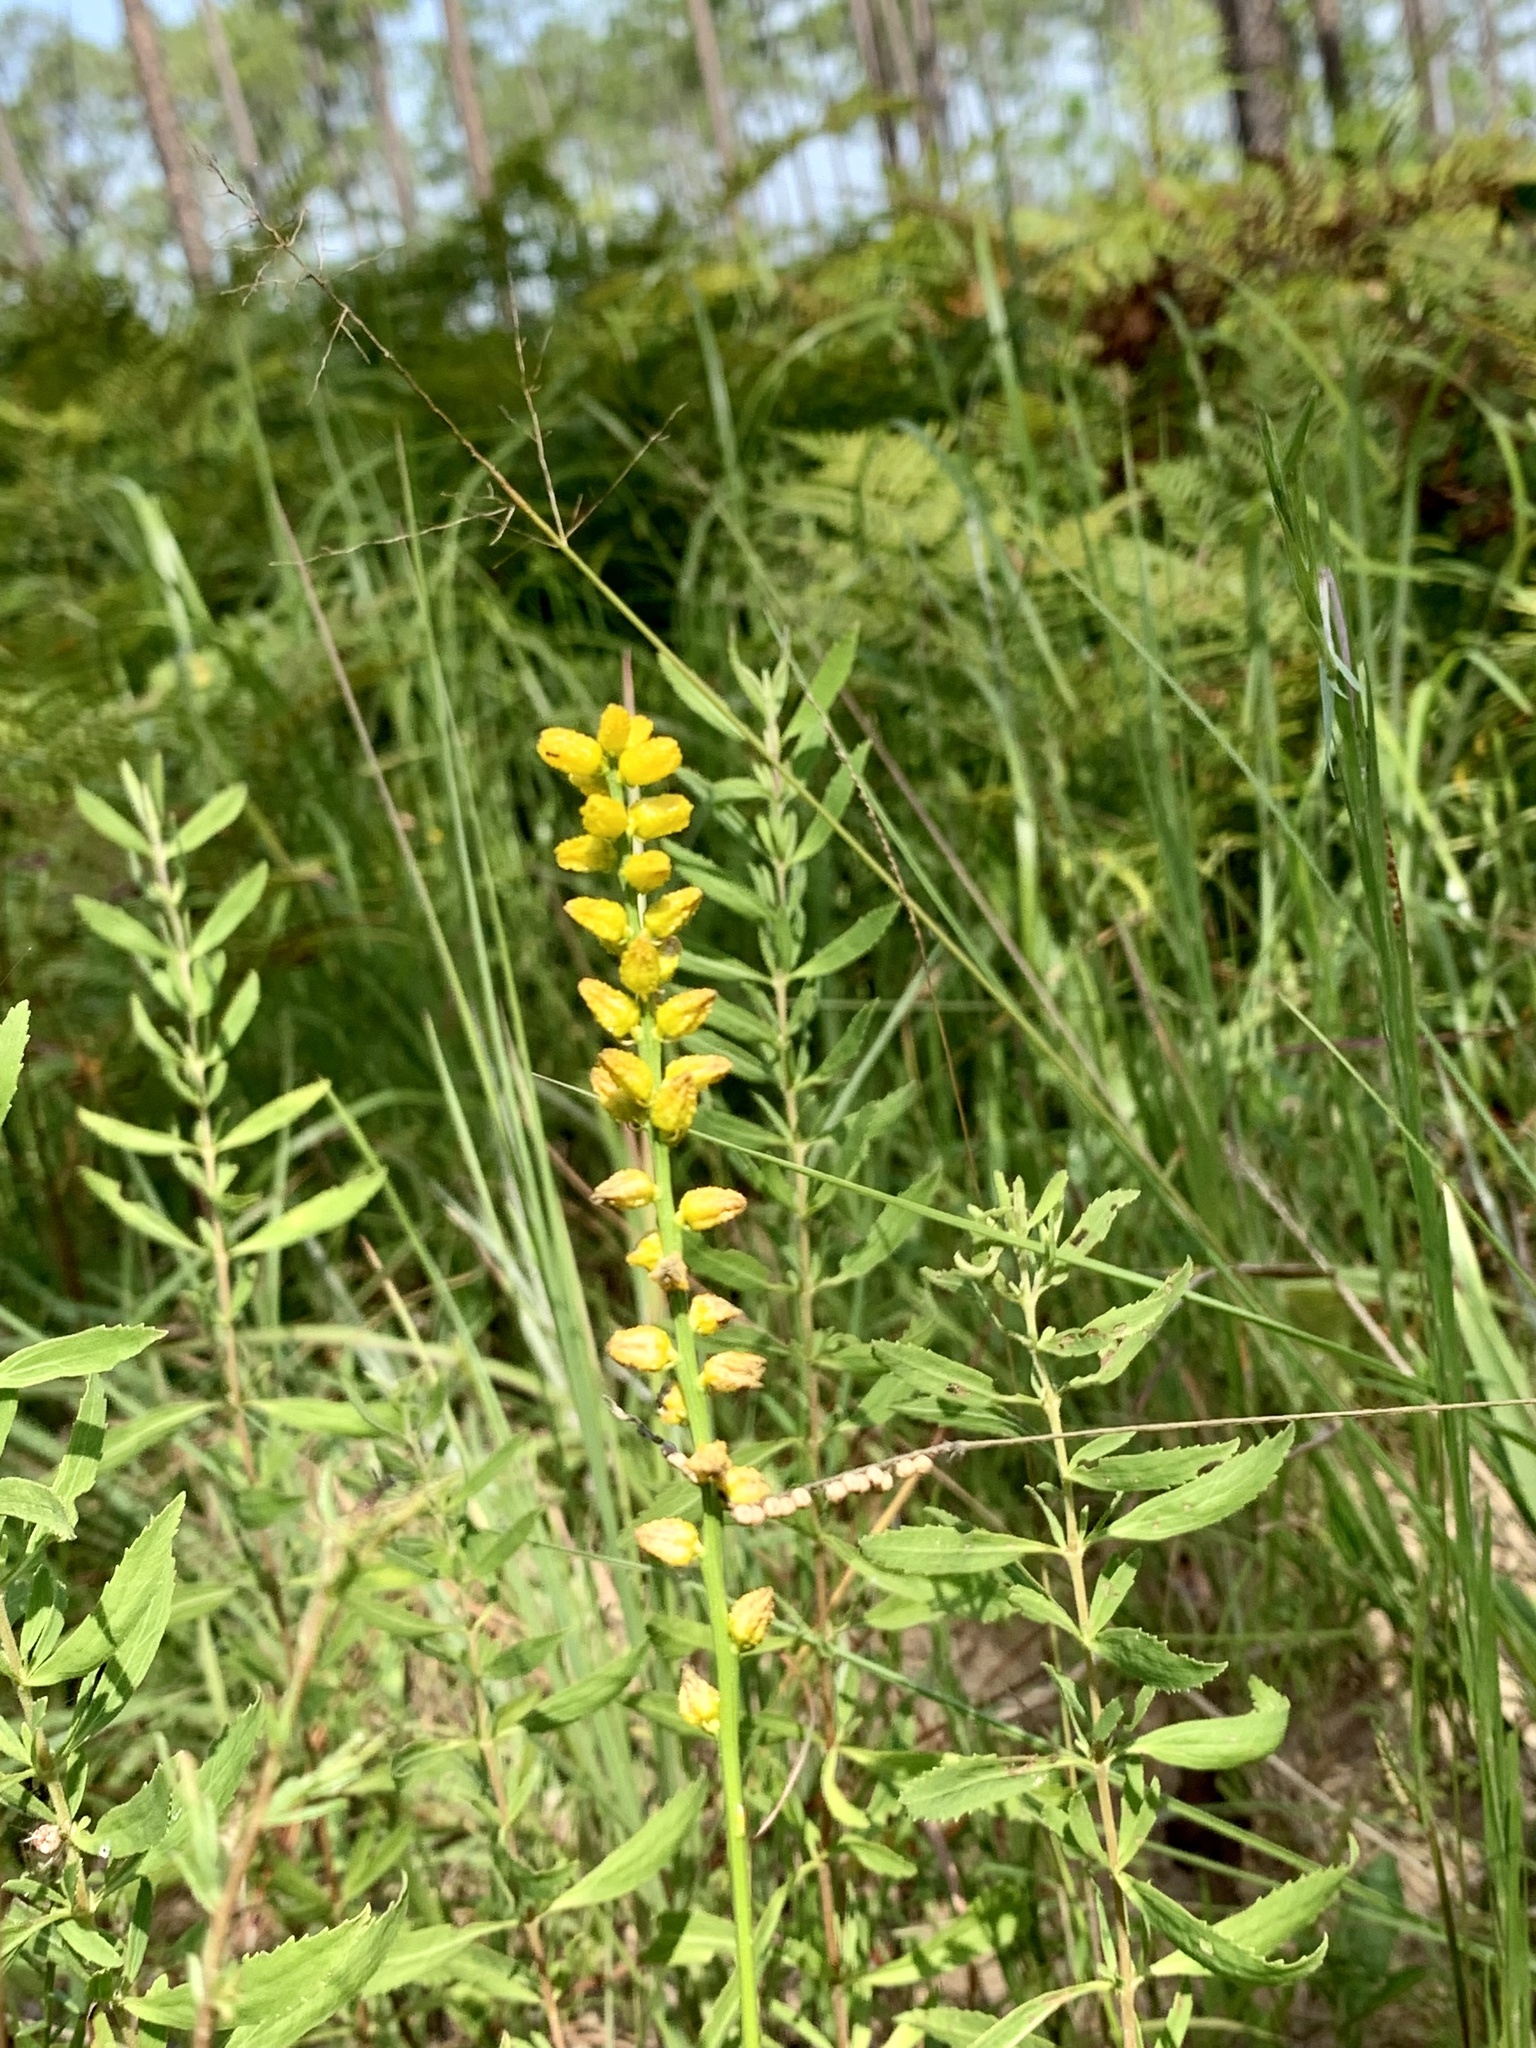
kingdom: Plantae
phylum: Tracheophyta
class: Liliopsida
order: Dioscoreales
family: Nartheciaceae
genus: Aletris
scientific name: Aletris aurea
